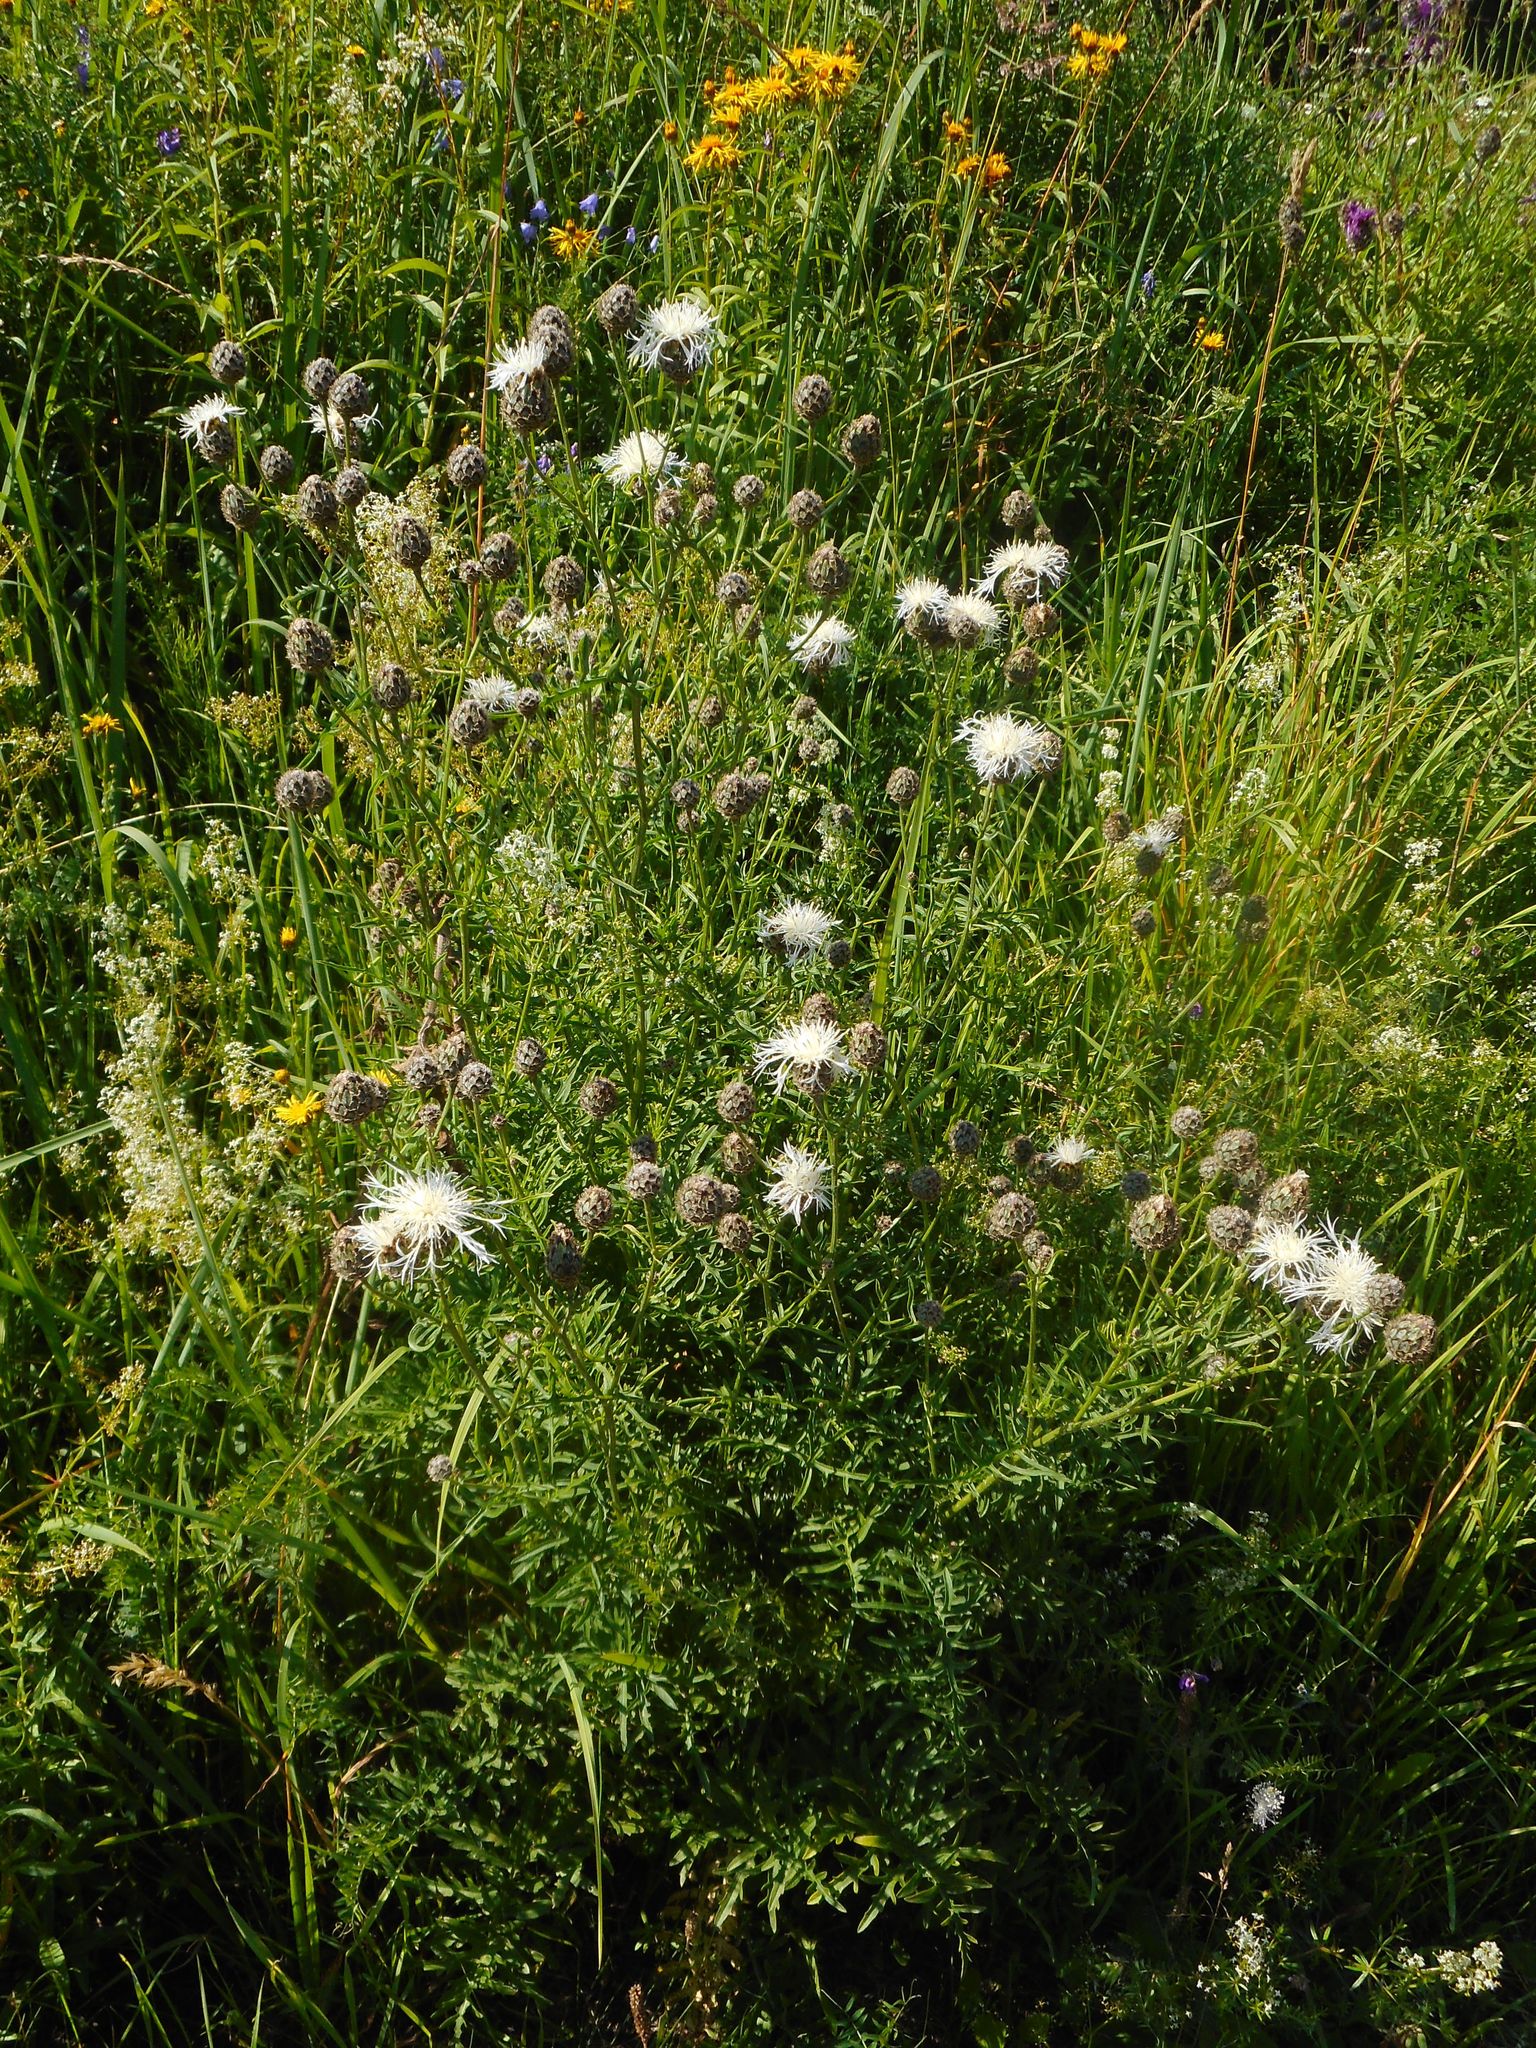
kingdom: Plantae
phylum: Tracheophyta
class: Magnoliopsida
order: Asterales
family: Asteraceae
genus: Centaurea
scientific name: Centaurea scabiosa
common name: Greater knapweed
